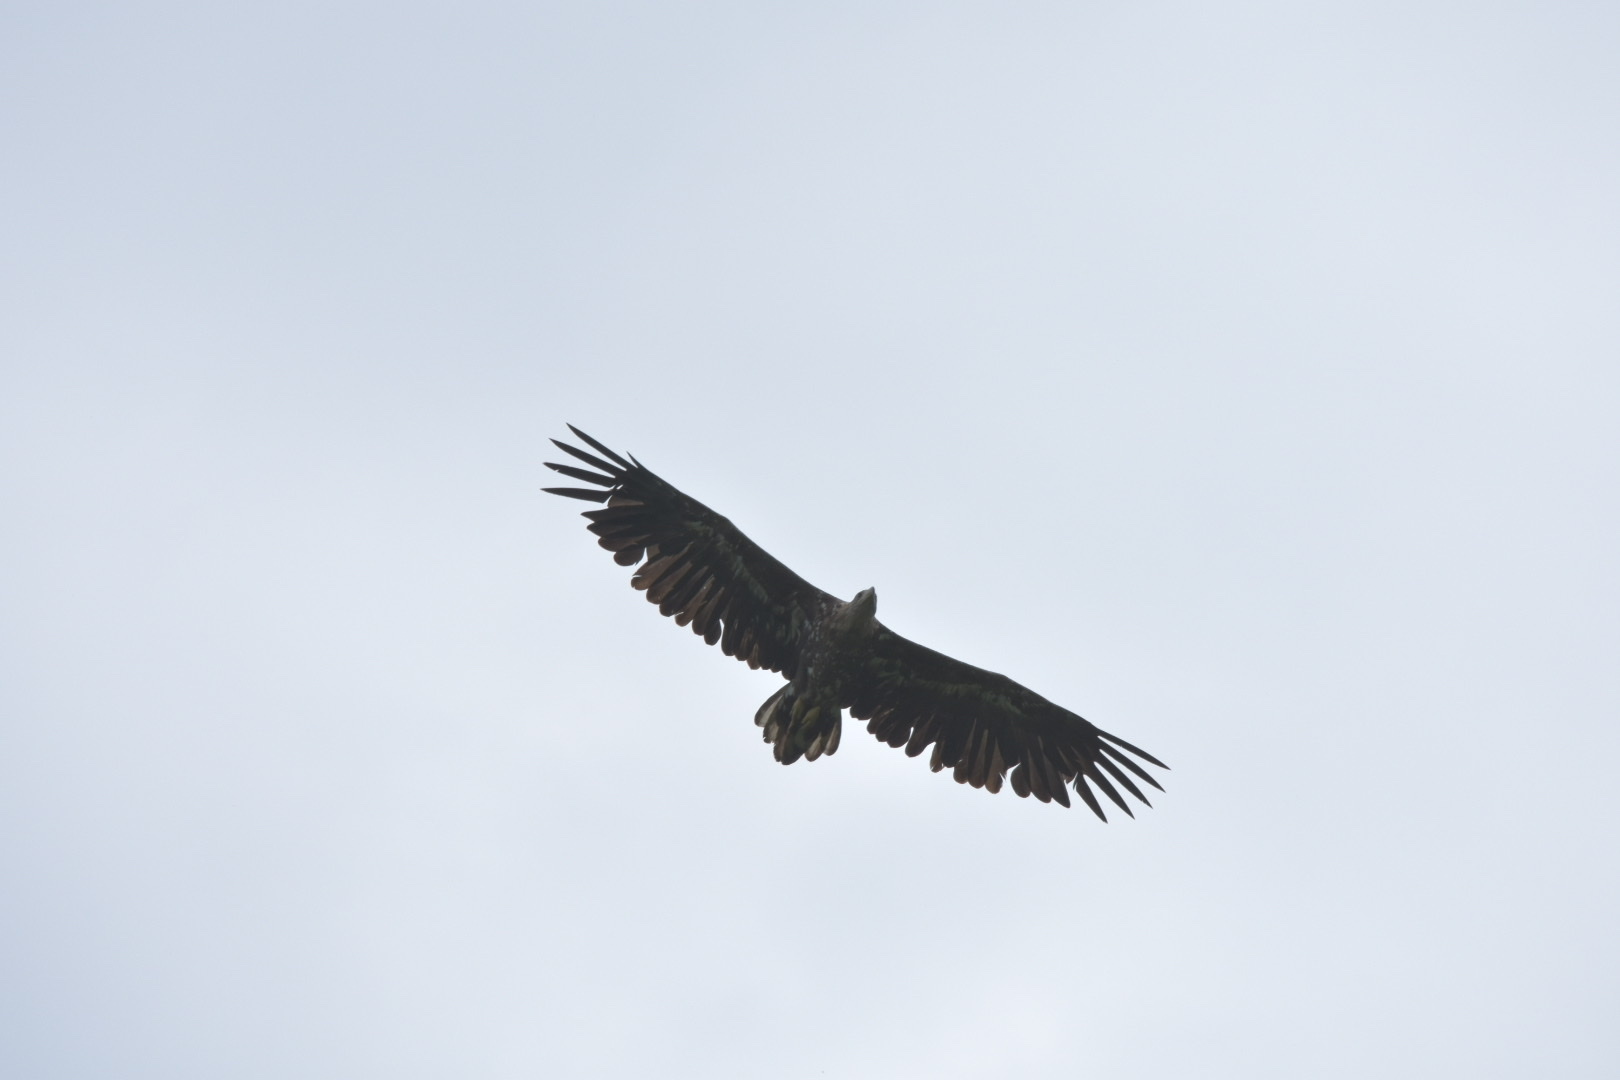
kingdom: Animalia
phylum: Chordata
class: Aves
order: Accipitriformes
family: Accipitridae
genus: Haliaeetus
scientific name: Haliaeetus albicilla
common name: White-tailed eagle
